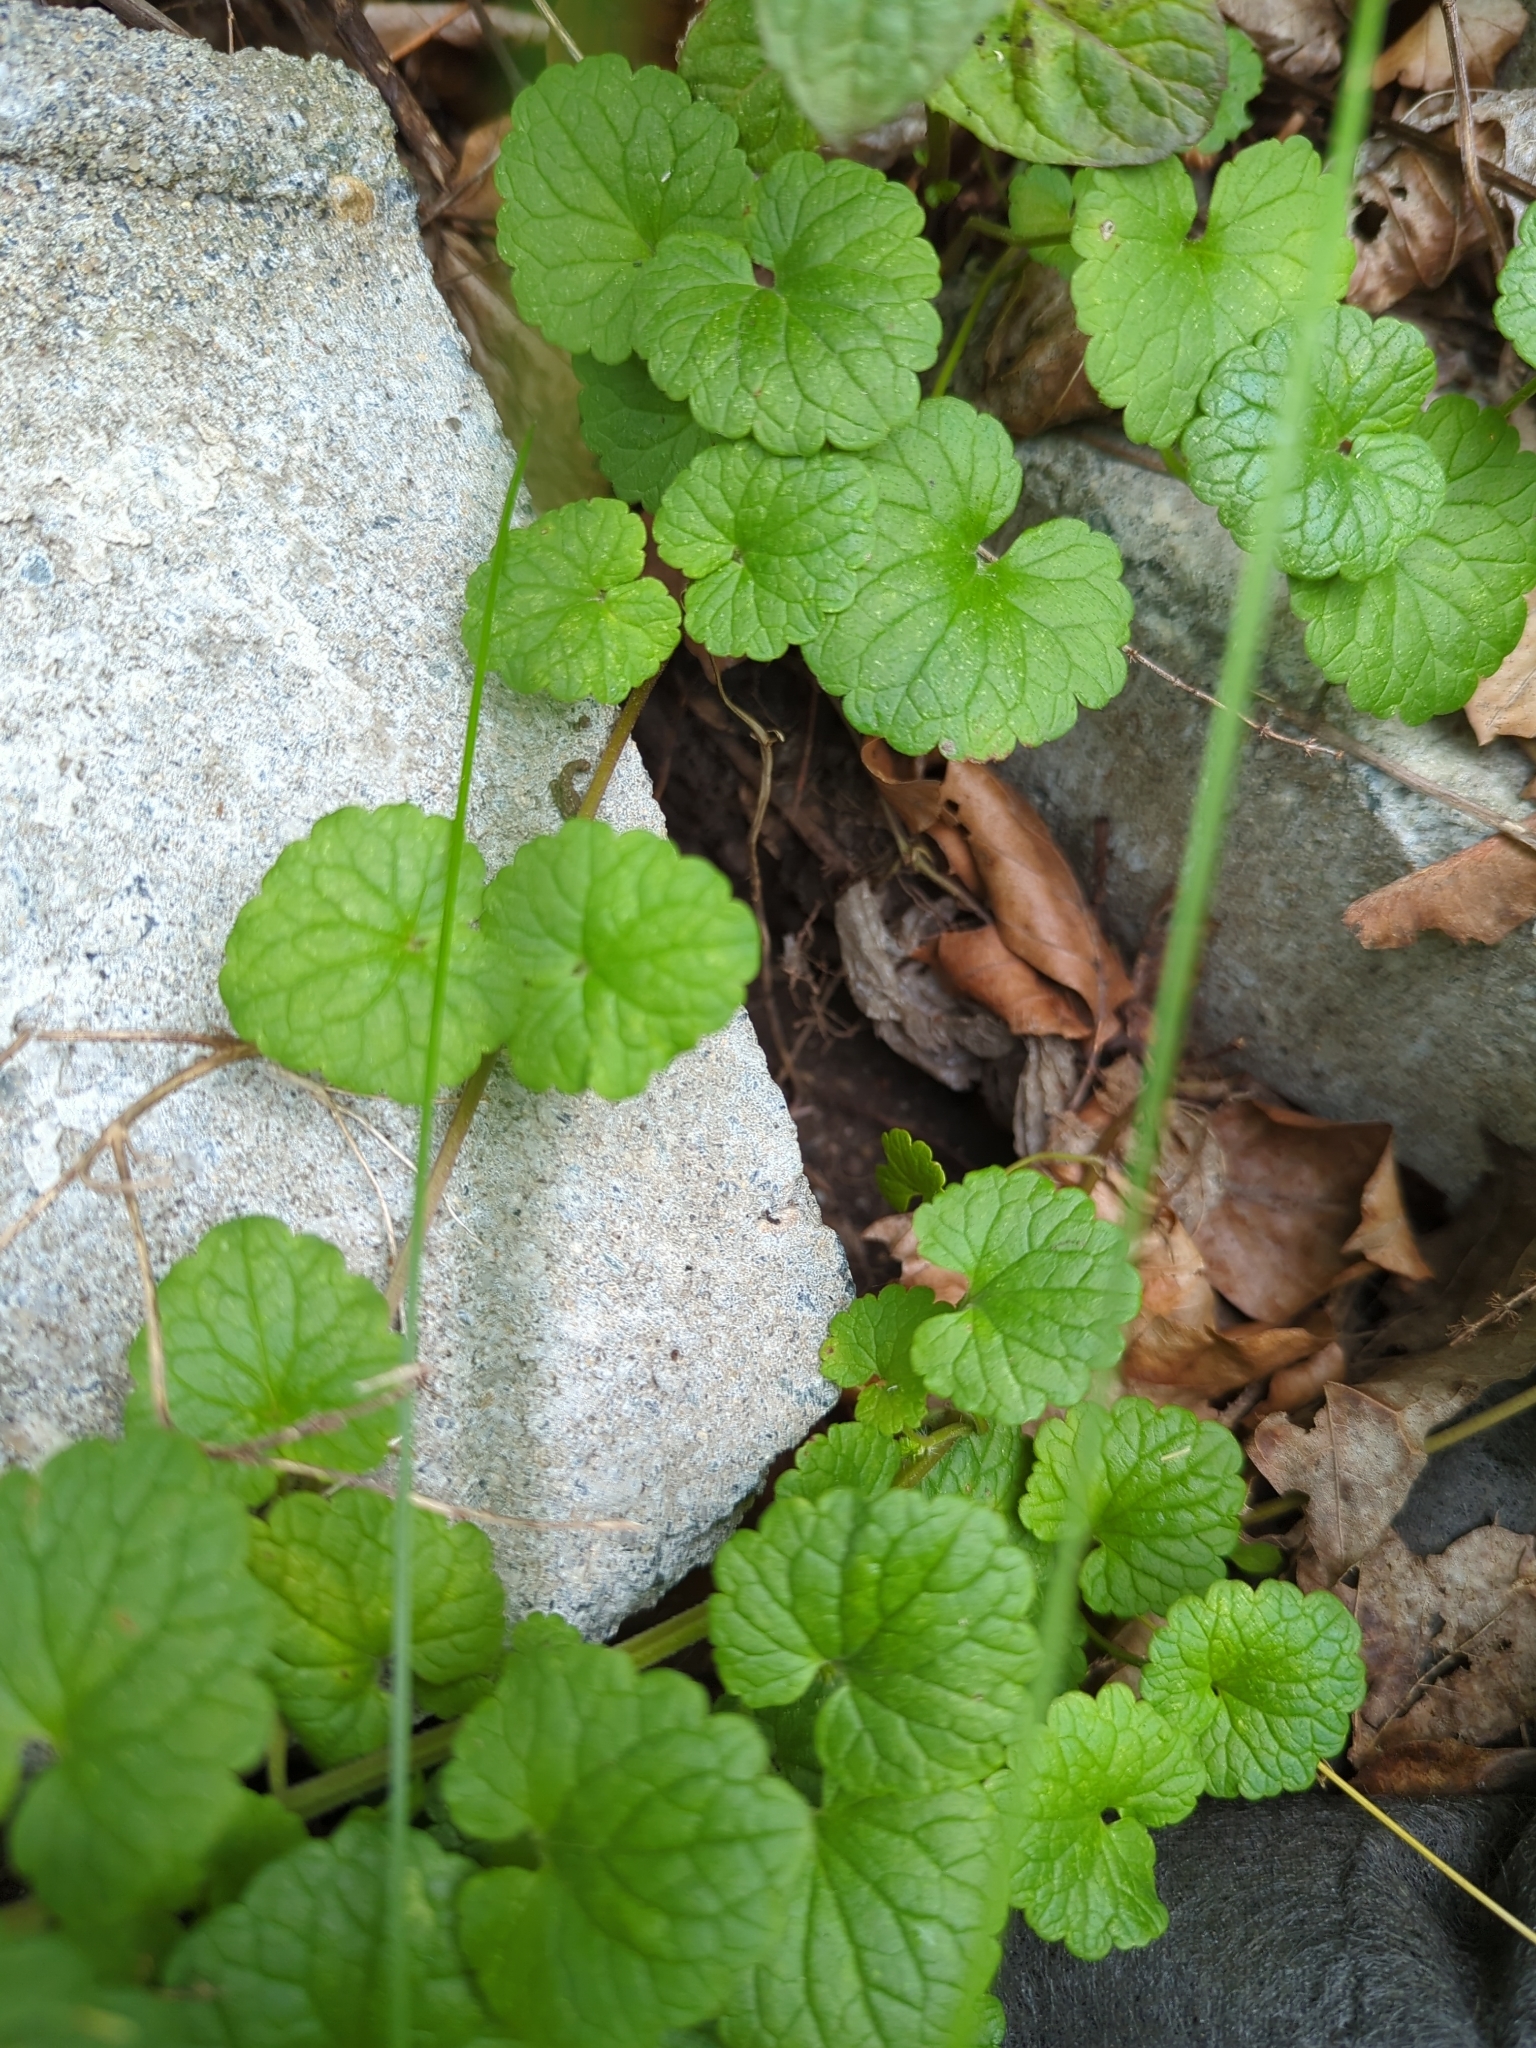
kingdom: Plantae
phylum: Tracheophyta
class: Magnoliopsida
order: Lamiales
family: Lamiaceae
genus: Glechoma
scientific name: Glechoma hederacea
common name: Ground ivy
